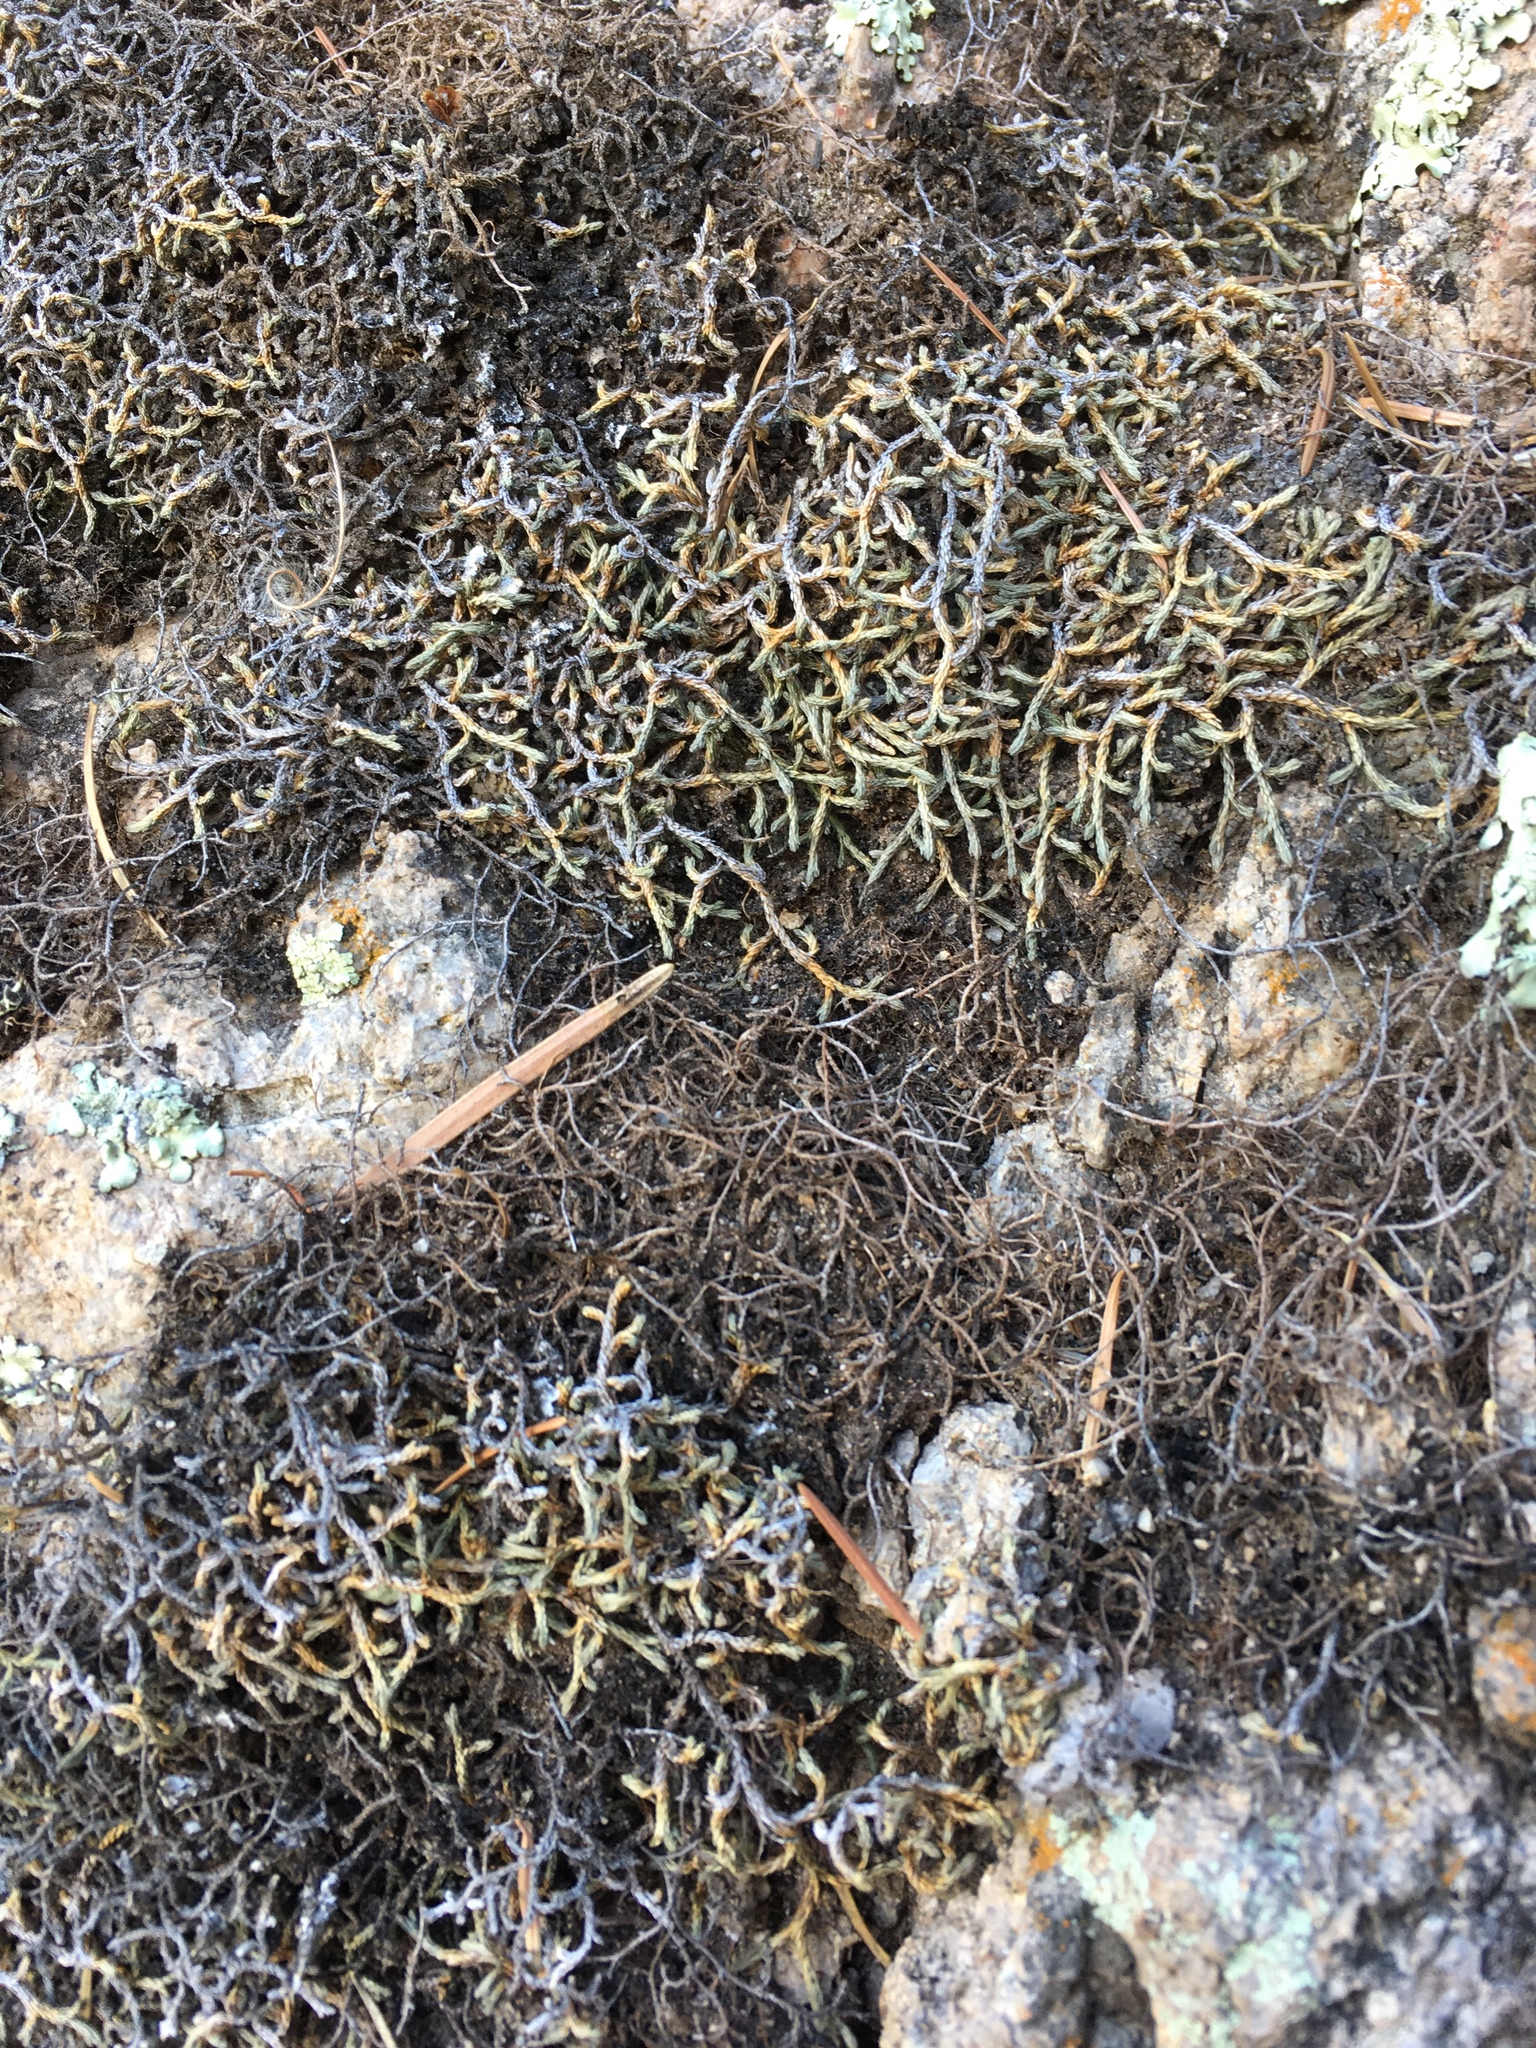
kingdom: Plantae
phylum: Tracheophyta
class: Lycopodiopsida
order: Selaginellales
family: Selaginellaceae
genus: Selaginella
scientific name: Selaginella mutica
